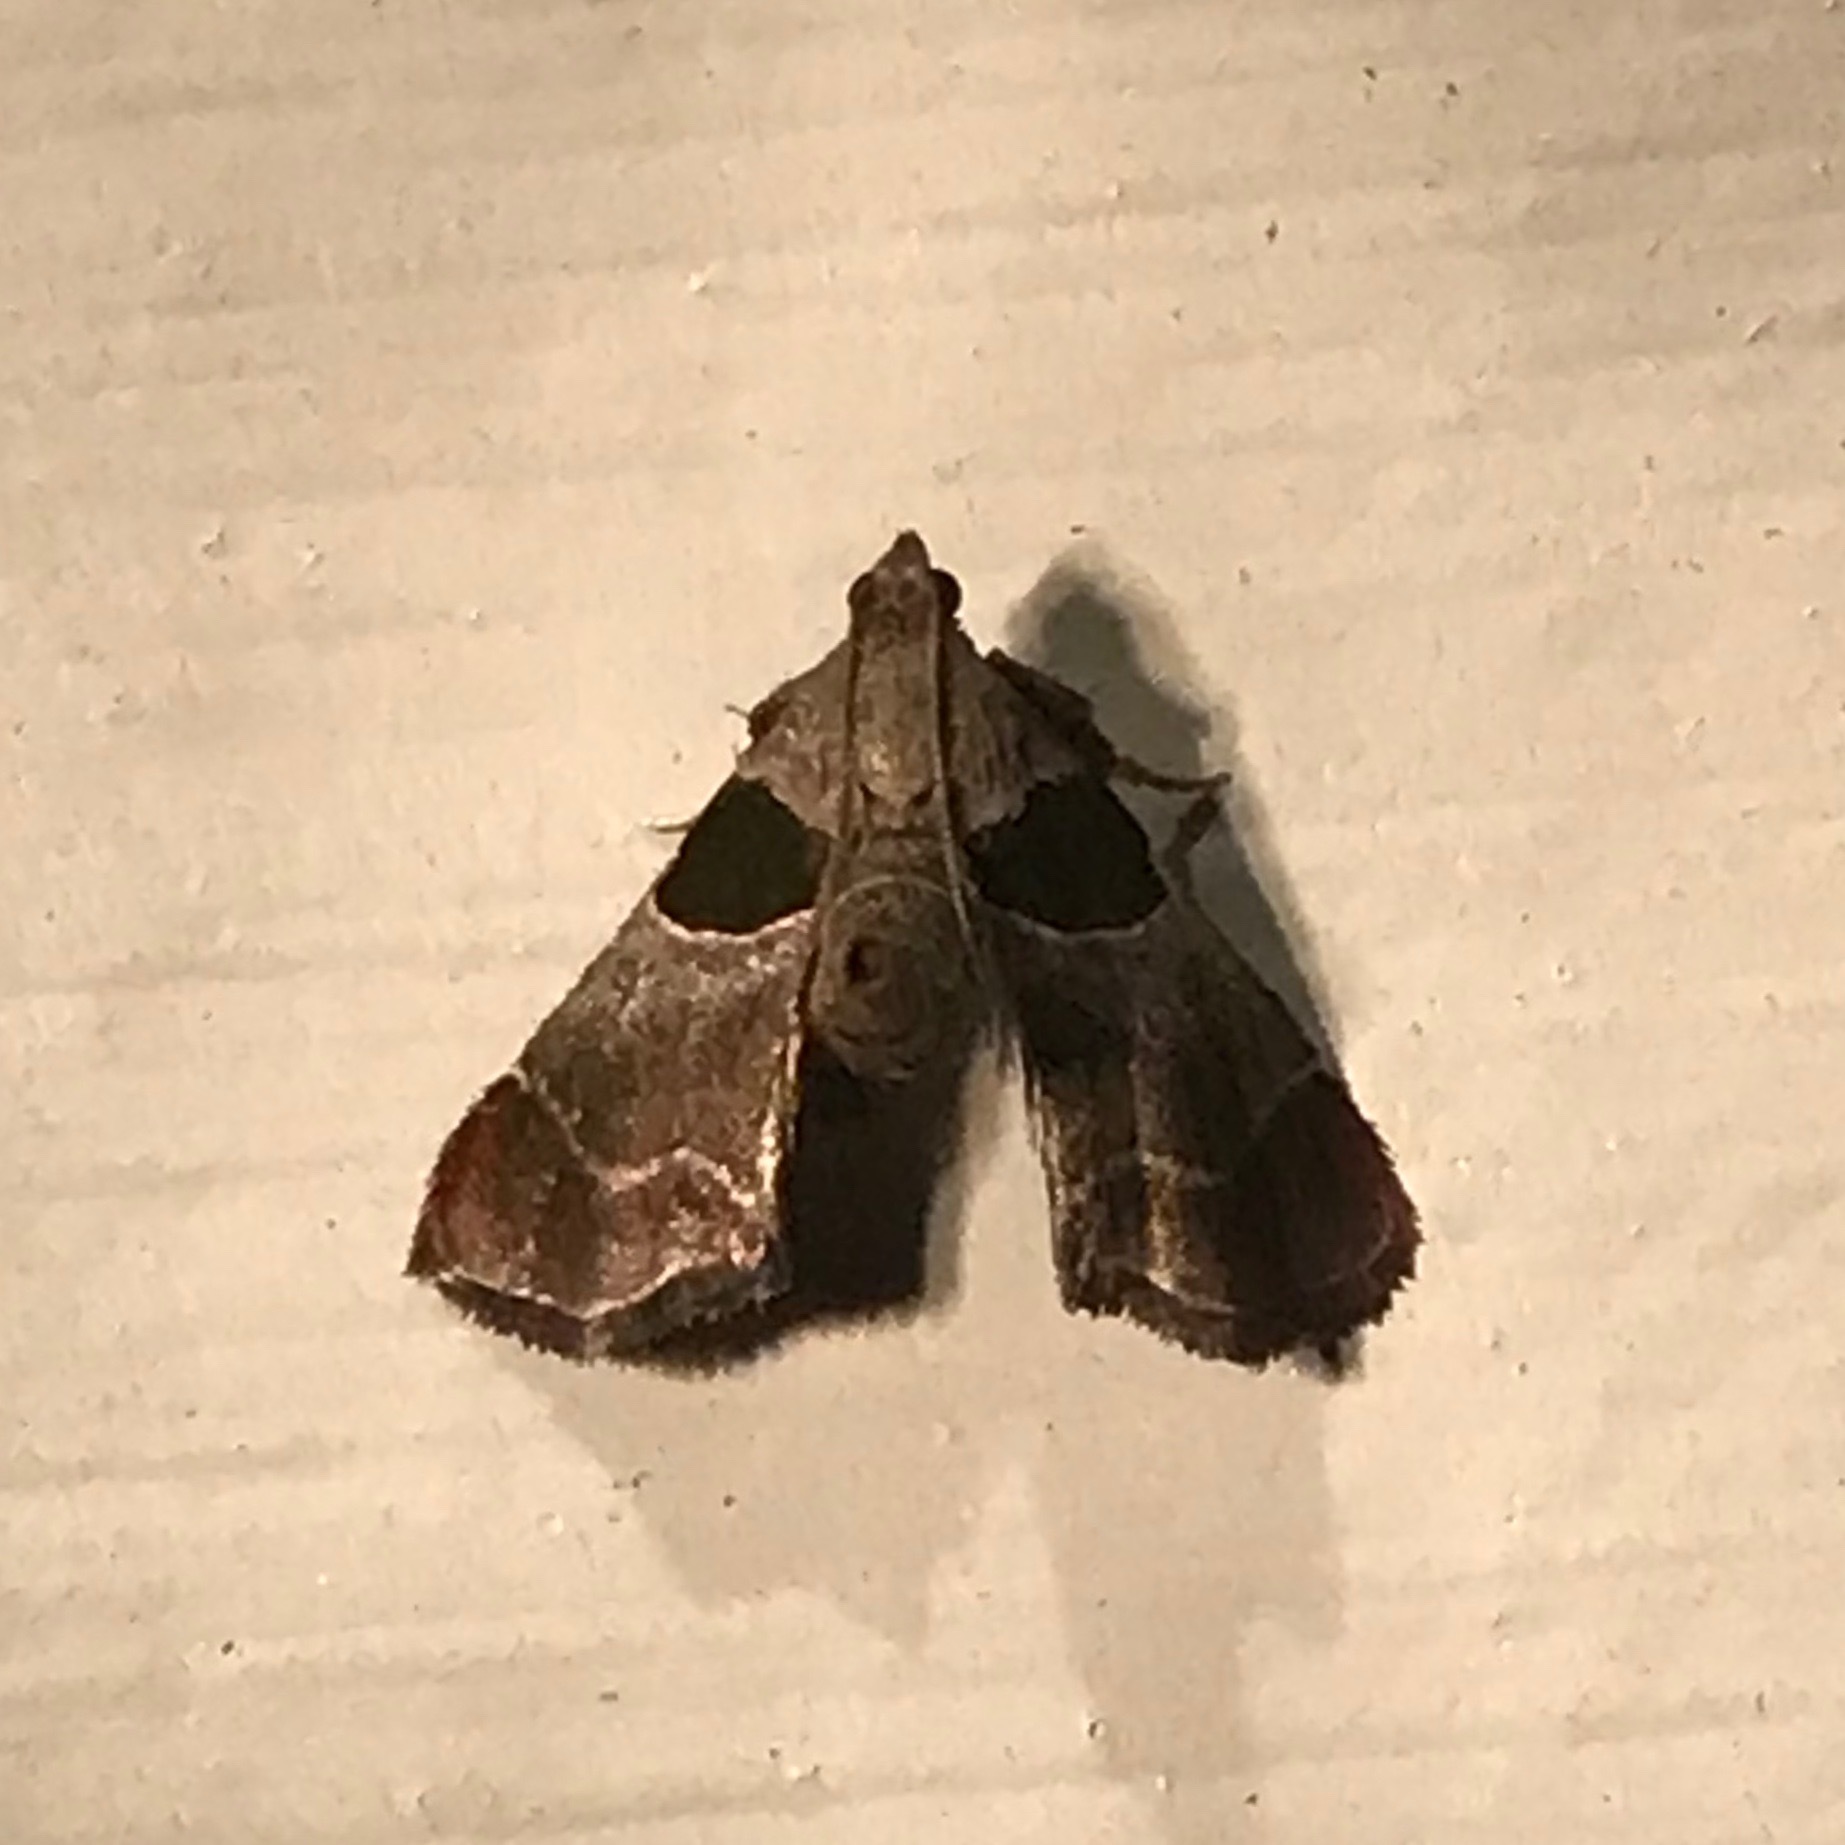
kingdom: Animalia
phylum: Arthropoda
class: Insecta
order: Lepidoptera
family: Pyralidae
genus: Tosale
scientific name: Tosale oviplagalis
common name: Dimorphic tosale moth
